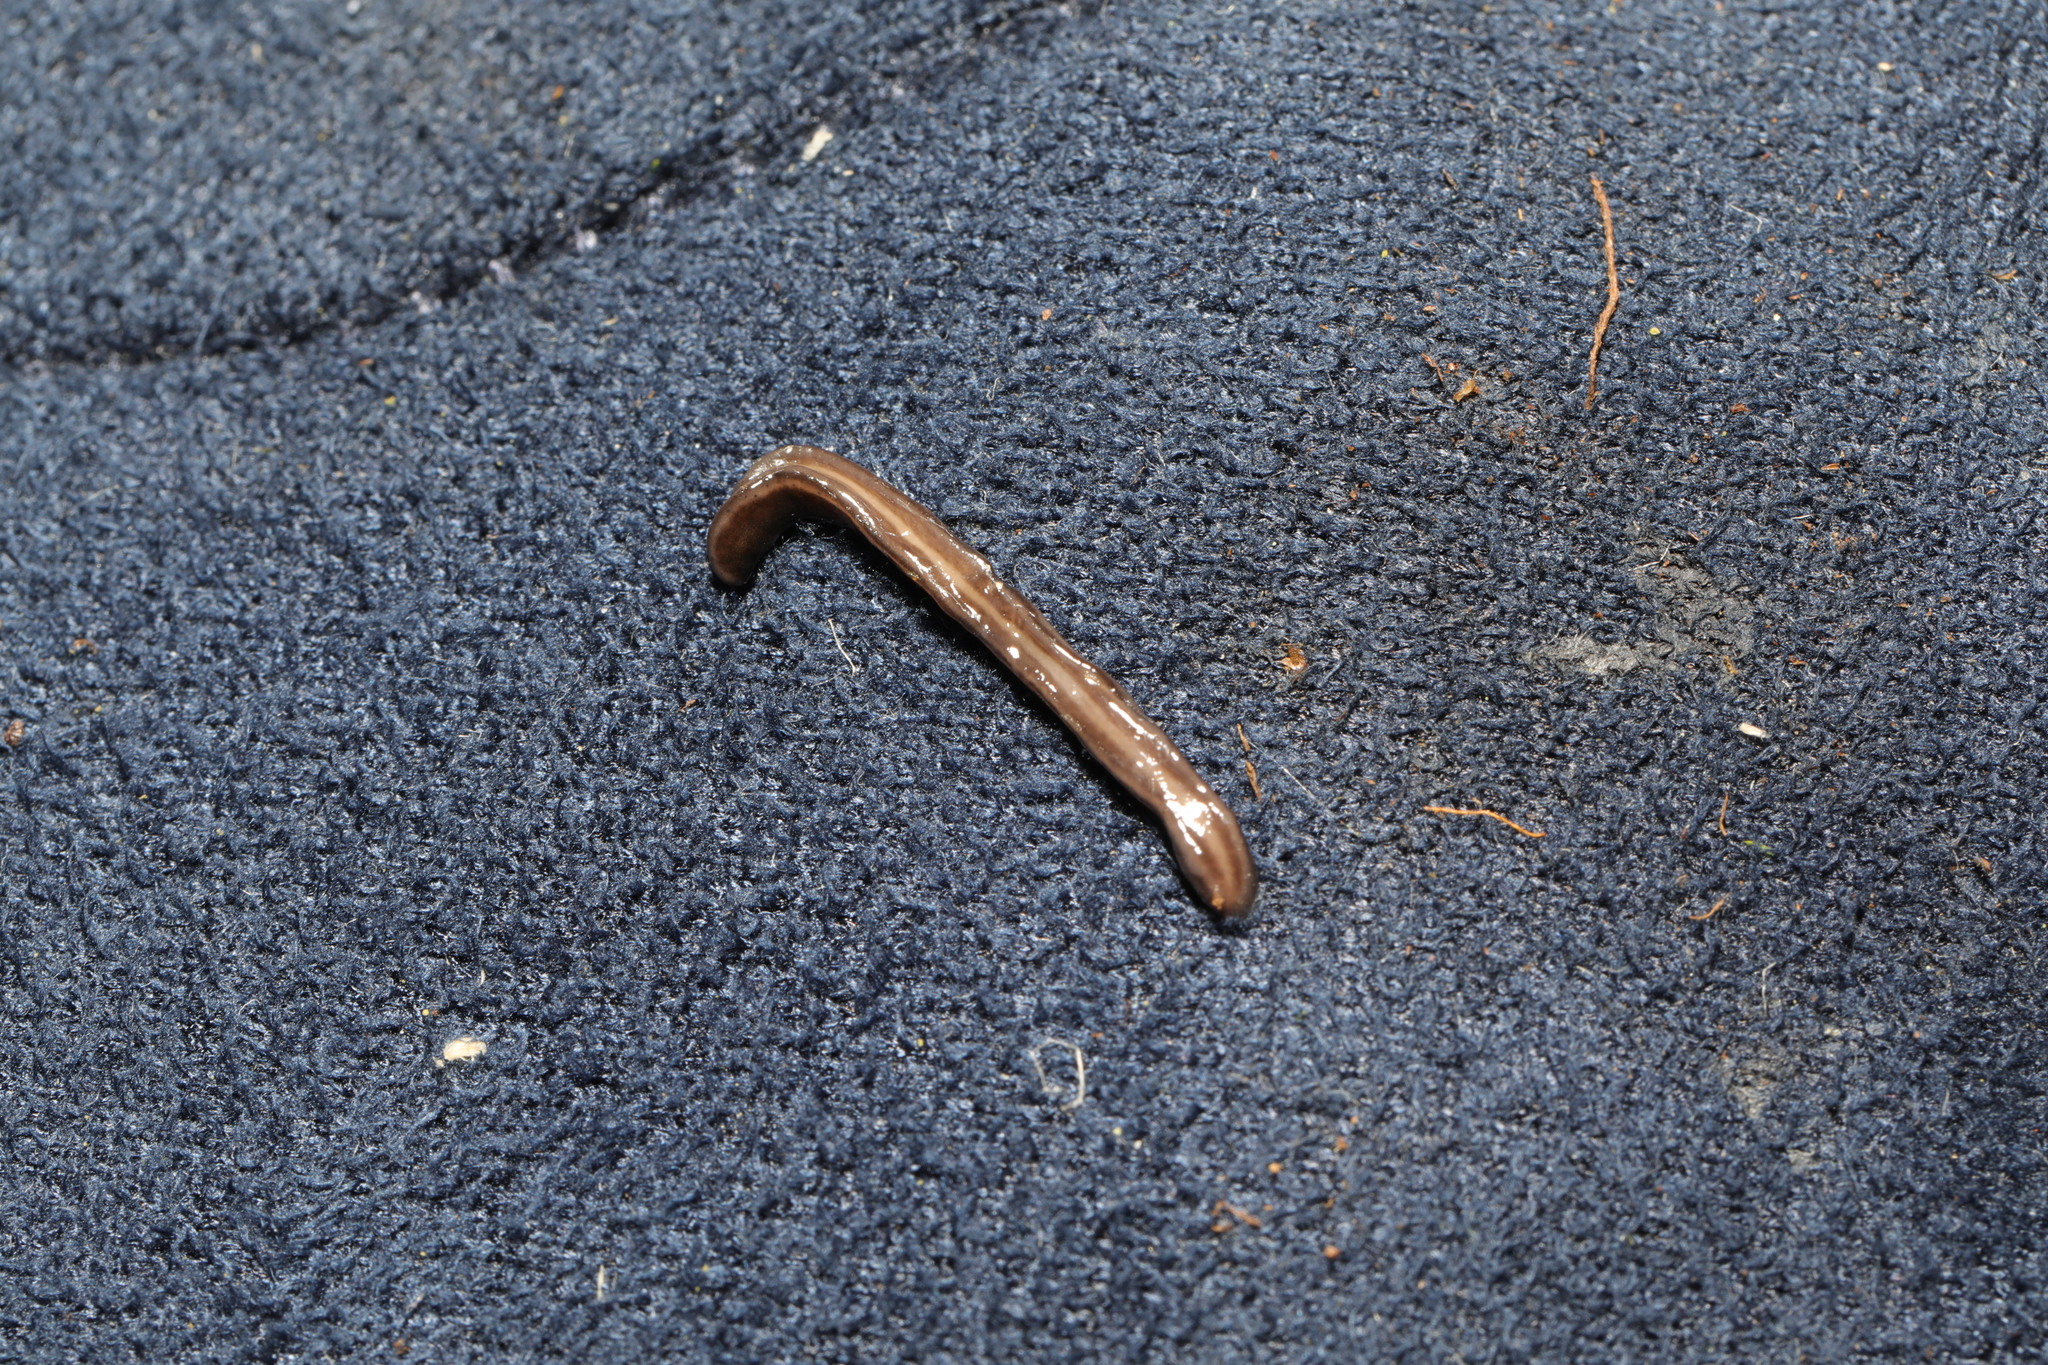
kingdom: Animalia
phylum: Platyhelminthes
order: Tricladida
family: Geoplanidae
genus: Parakontikia
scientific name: Parakontikia ventrolineata
